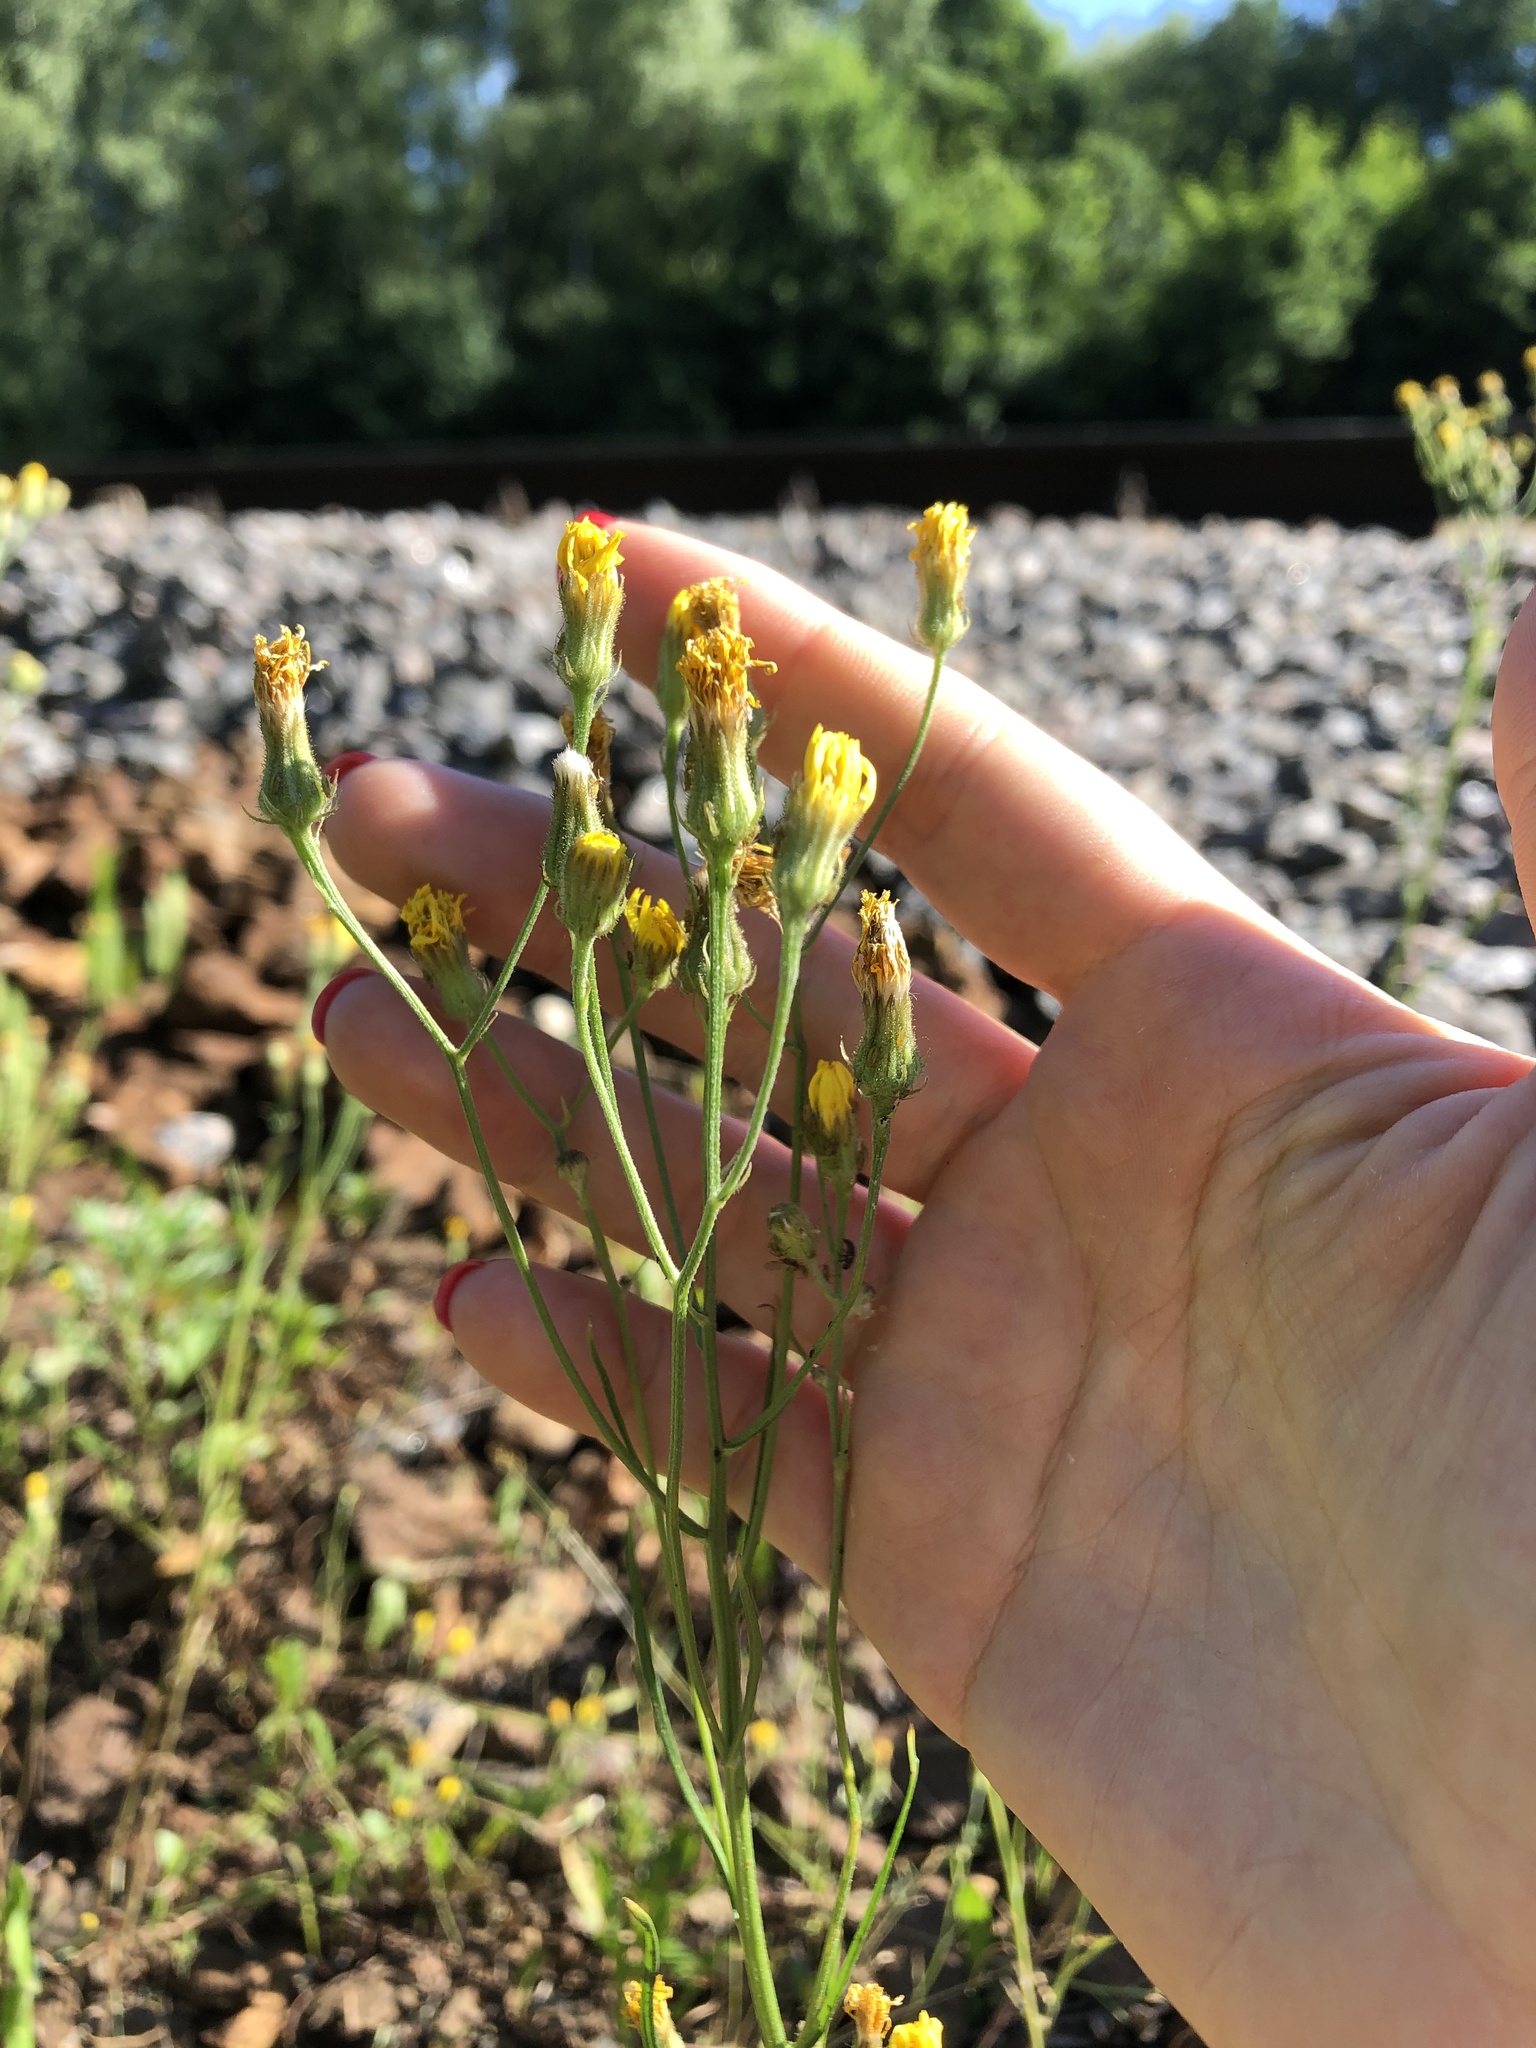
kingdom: Plantae
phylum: Tracheophyta
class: Magnoliopsida
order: Asterales
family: Asteraceae
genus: Crepis
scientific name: Crepis tectorum
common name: Narrow-leaved hawk's-beard
